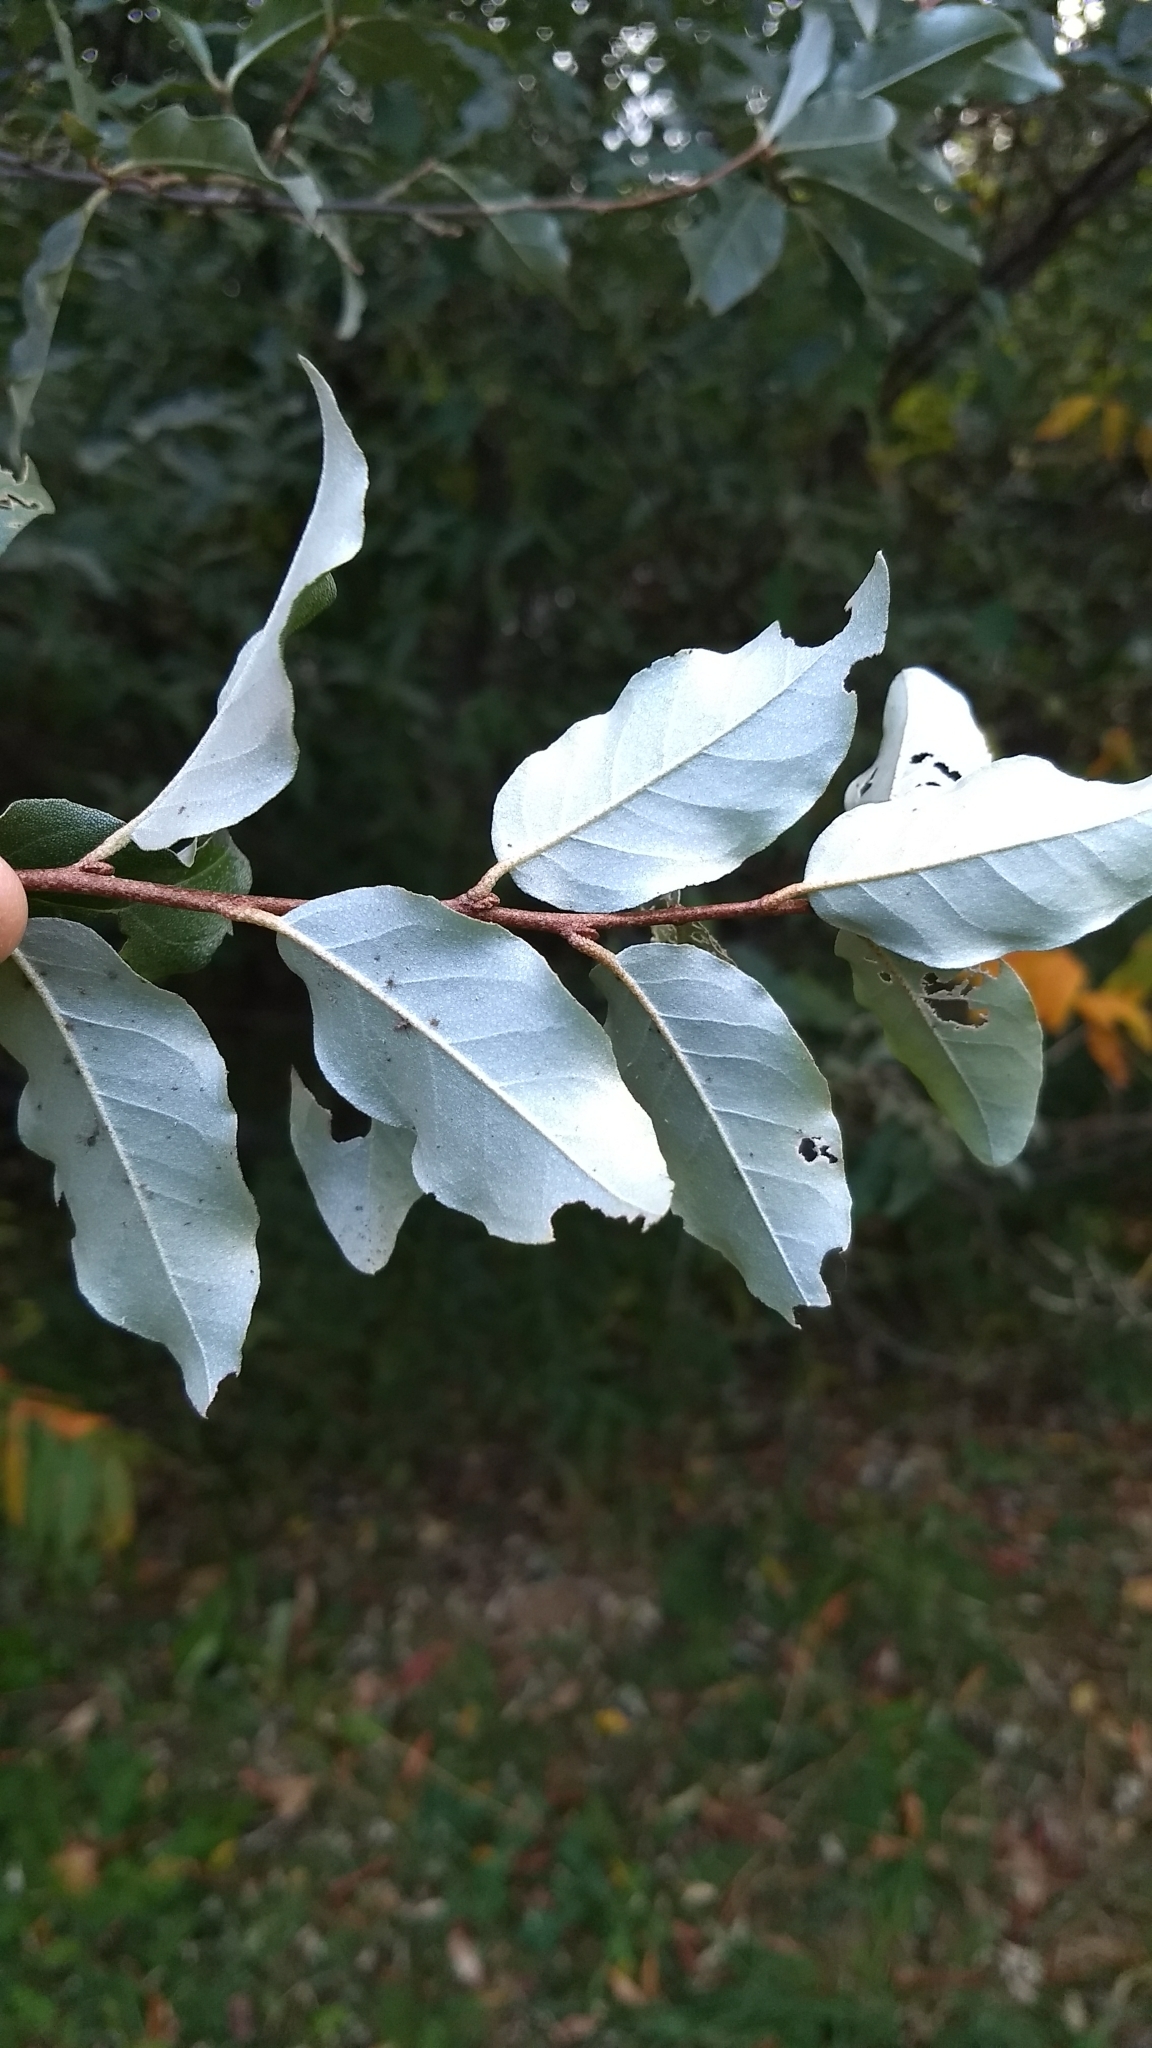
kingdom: Plantae
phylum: Tracheophyta
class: Magnoliopsida
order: Rosales
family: Elaeagnaceae
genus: Elaeagnus
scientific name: Elaeagnus umbellata
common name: Autumn olive
